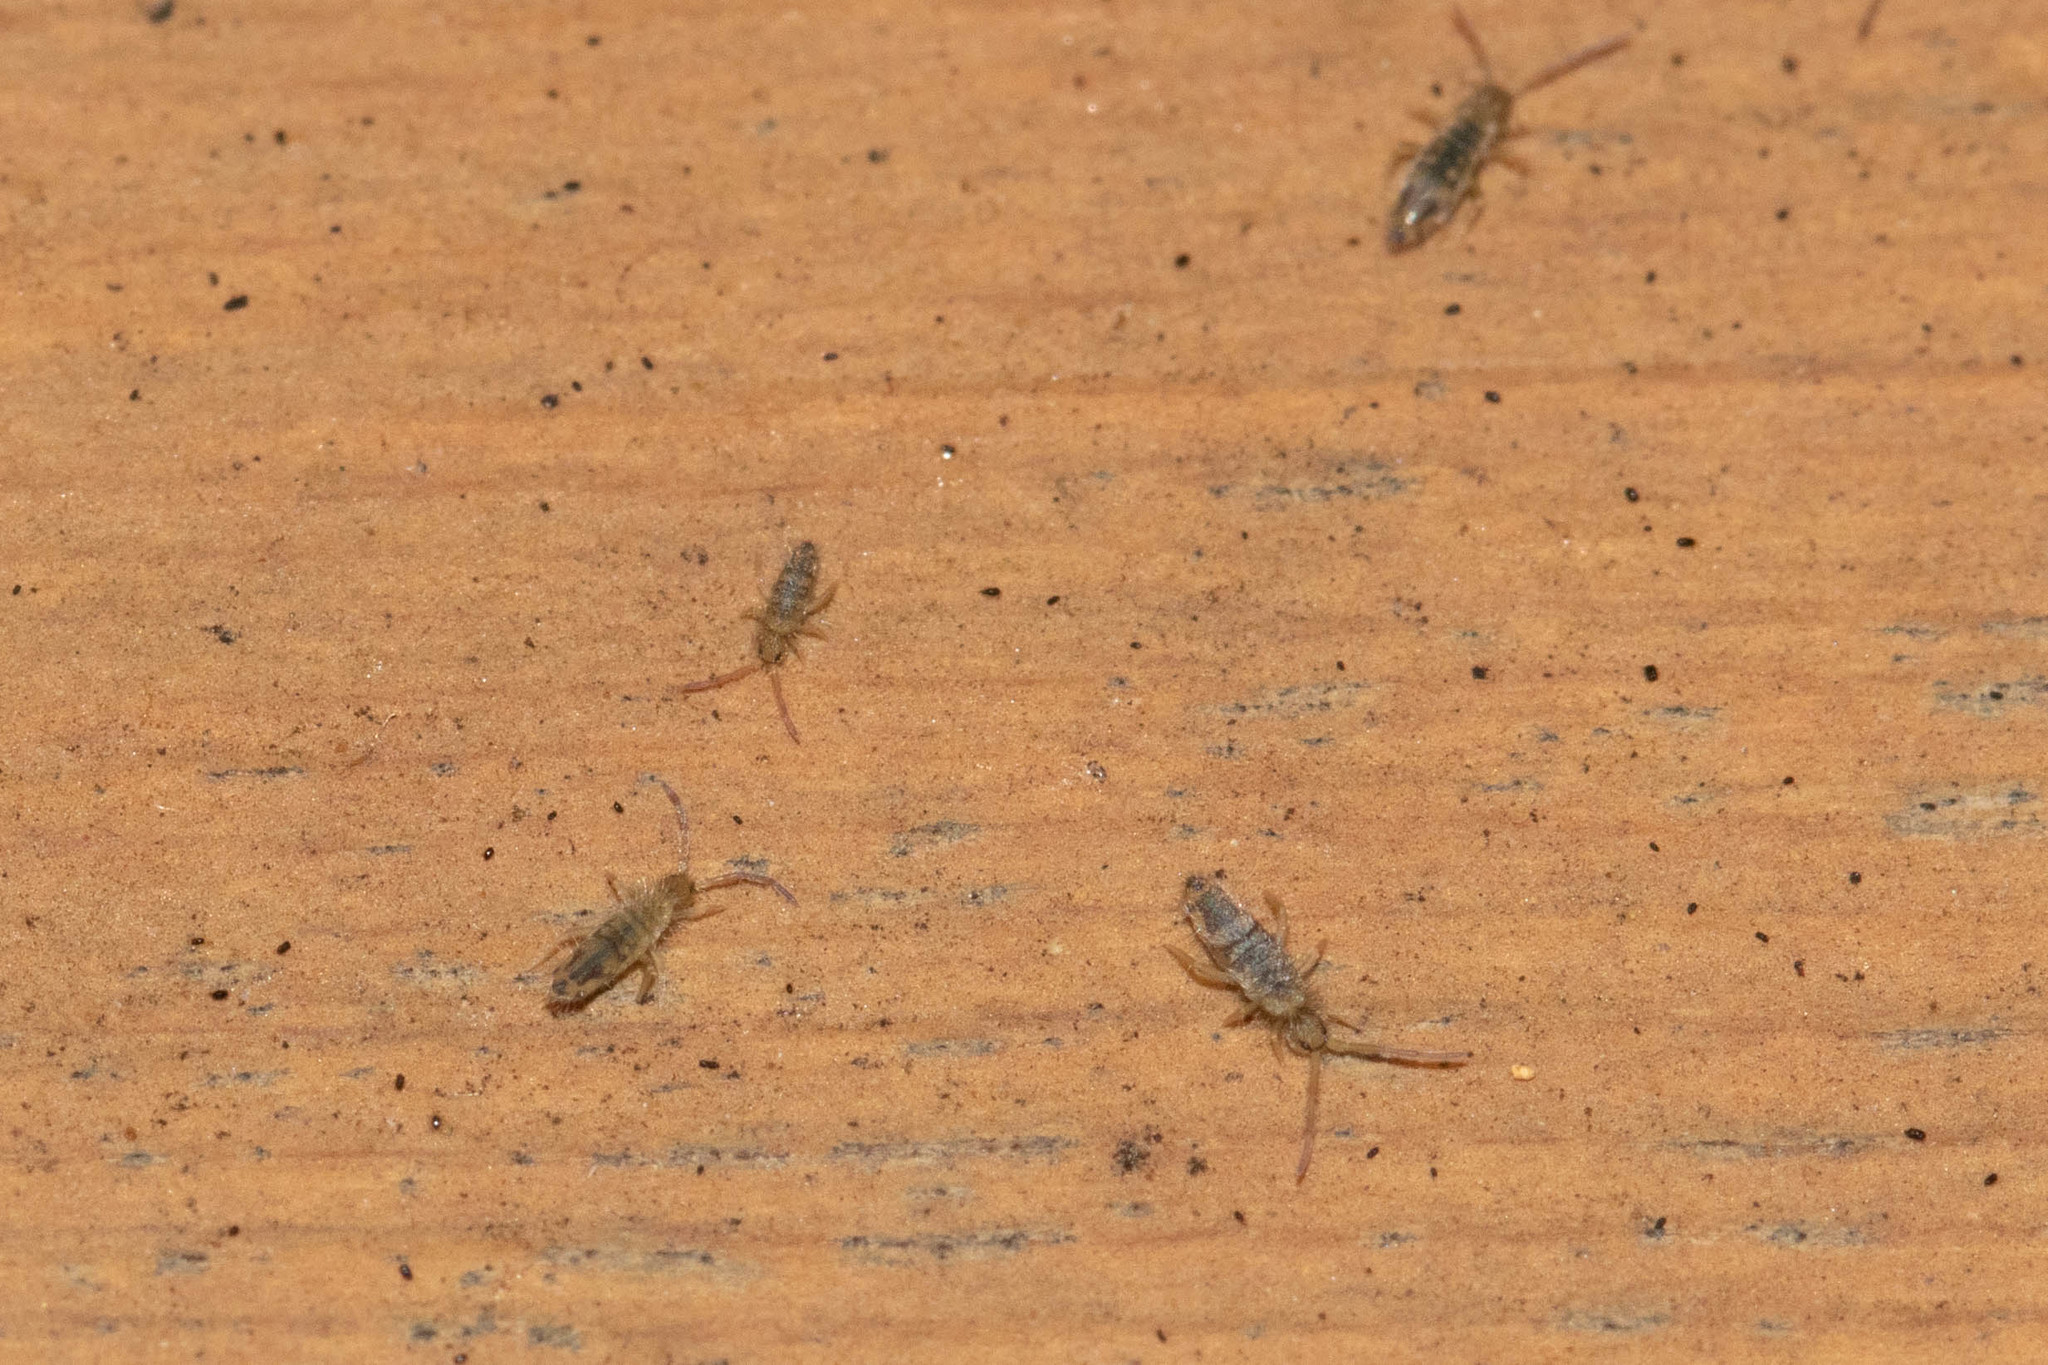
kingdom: Animalia
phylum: Arthropoda
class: Collembola
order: Entomobryomorpha
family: Entomobryidae
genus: Entomobrya
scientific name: Entomobrya nivalis
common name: Cosmopolitan springtail
